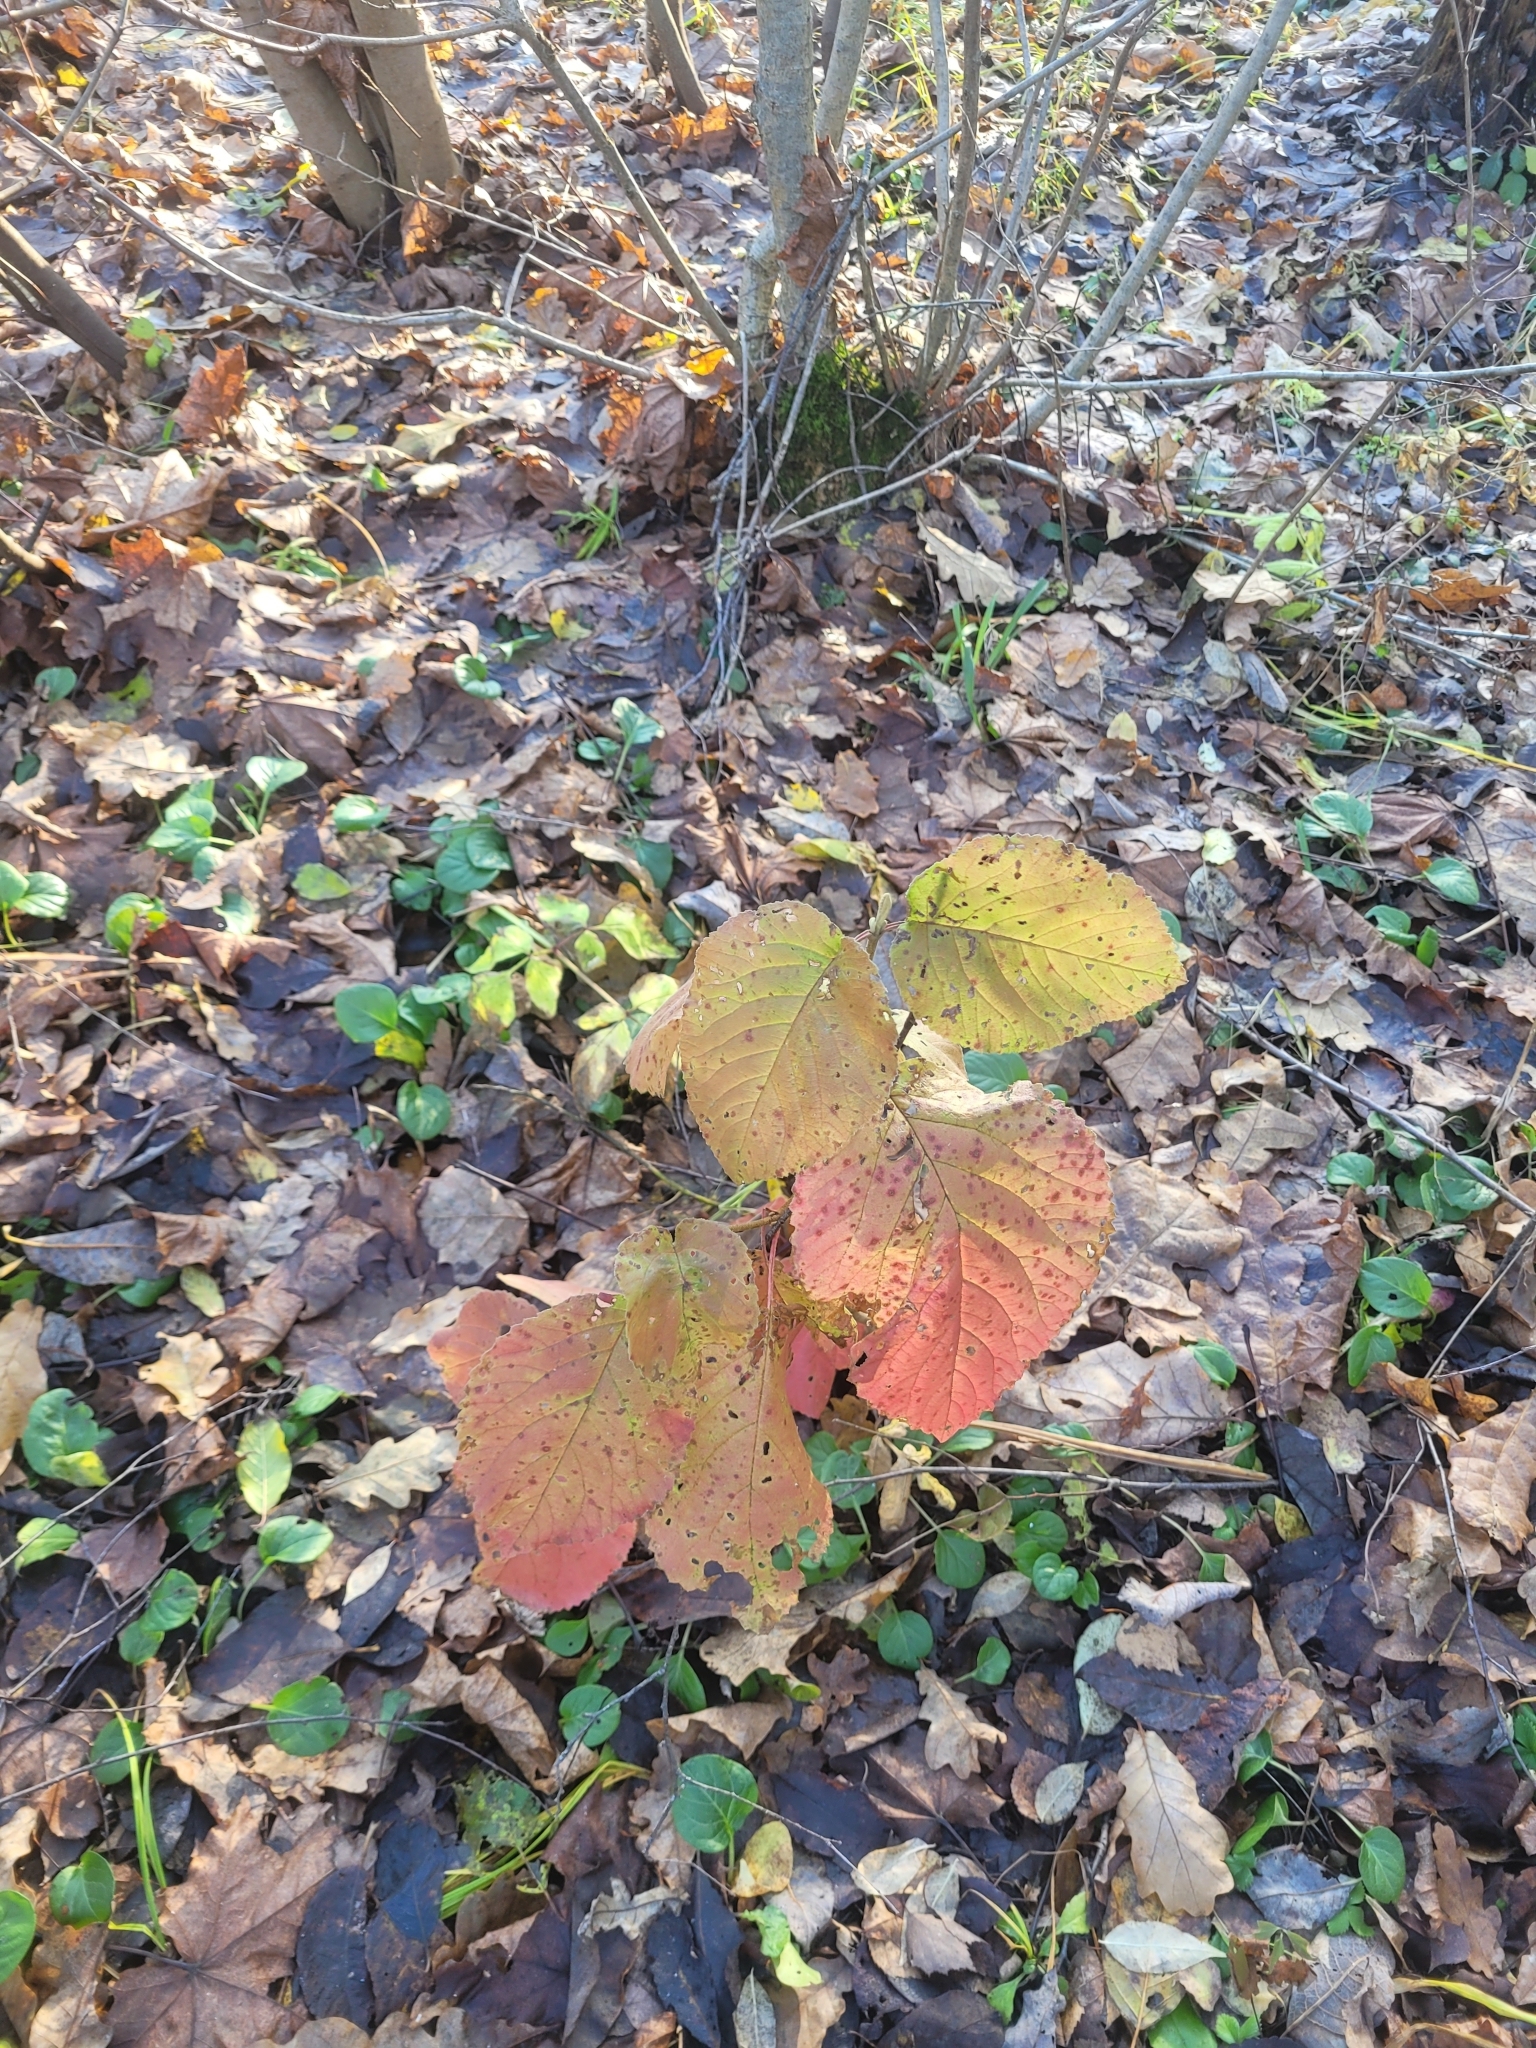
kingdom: Plantae
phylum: Tracheophyta
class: Magnoliopsida
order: Dipsacales
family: Viburnaceae
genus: Viburnum
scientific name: Viburnum lantana
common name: Wayfaring tree
